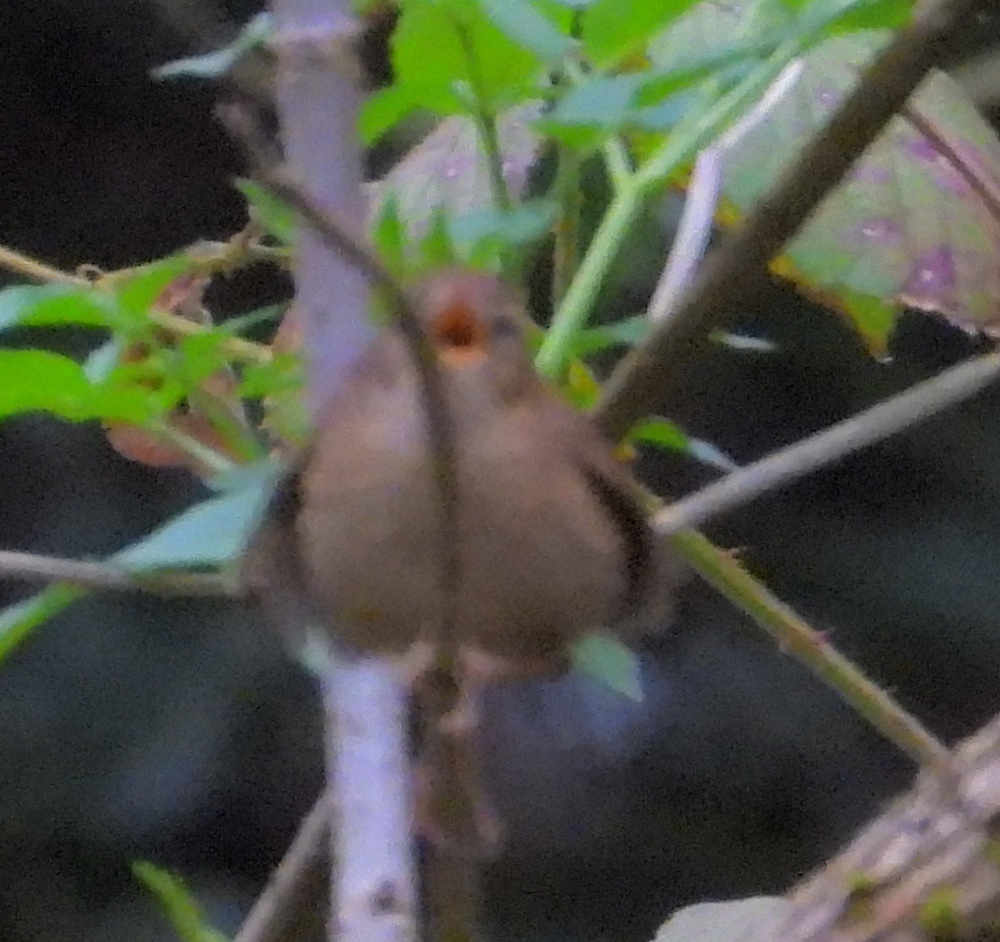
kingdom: Animalia
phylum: Chordata
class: Aves
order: Passeriformes
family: Troglodytidae
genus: Troglodytes
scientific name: Troglodytes troglodytes
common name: Eurasian wren
